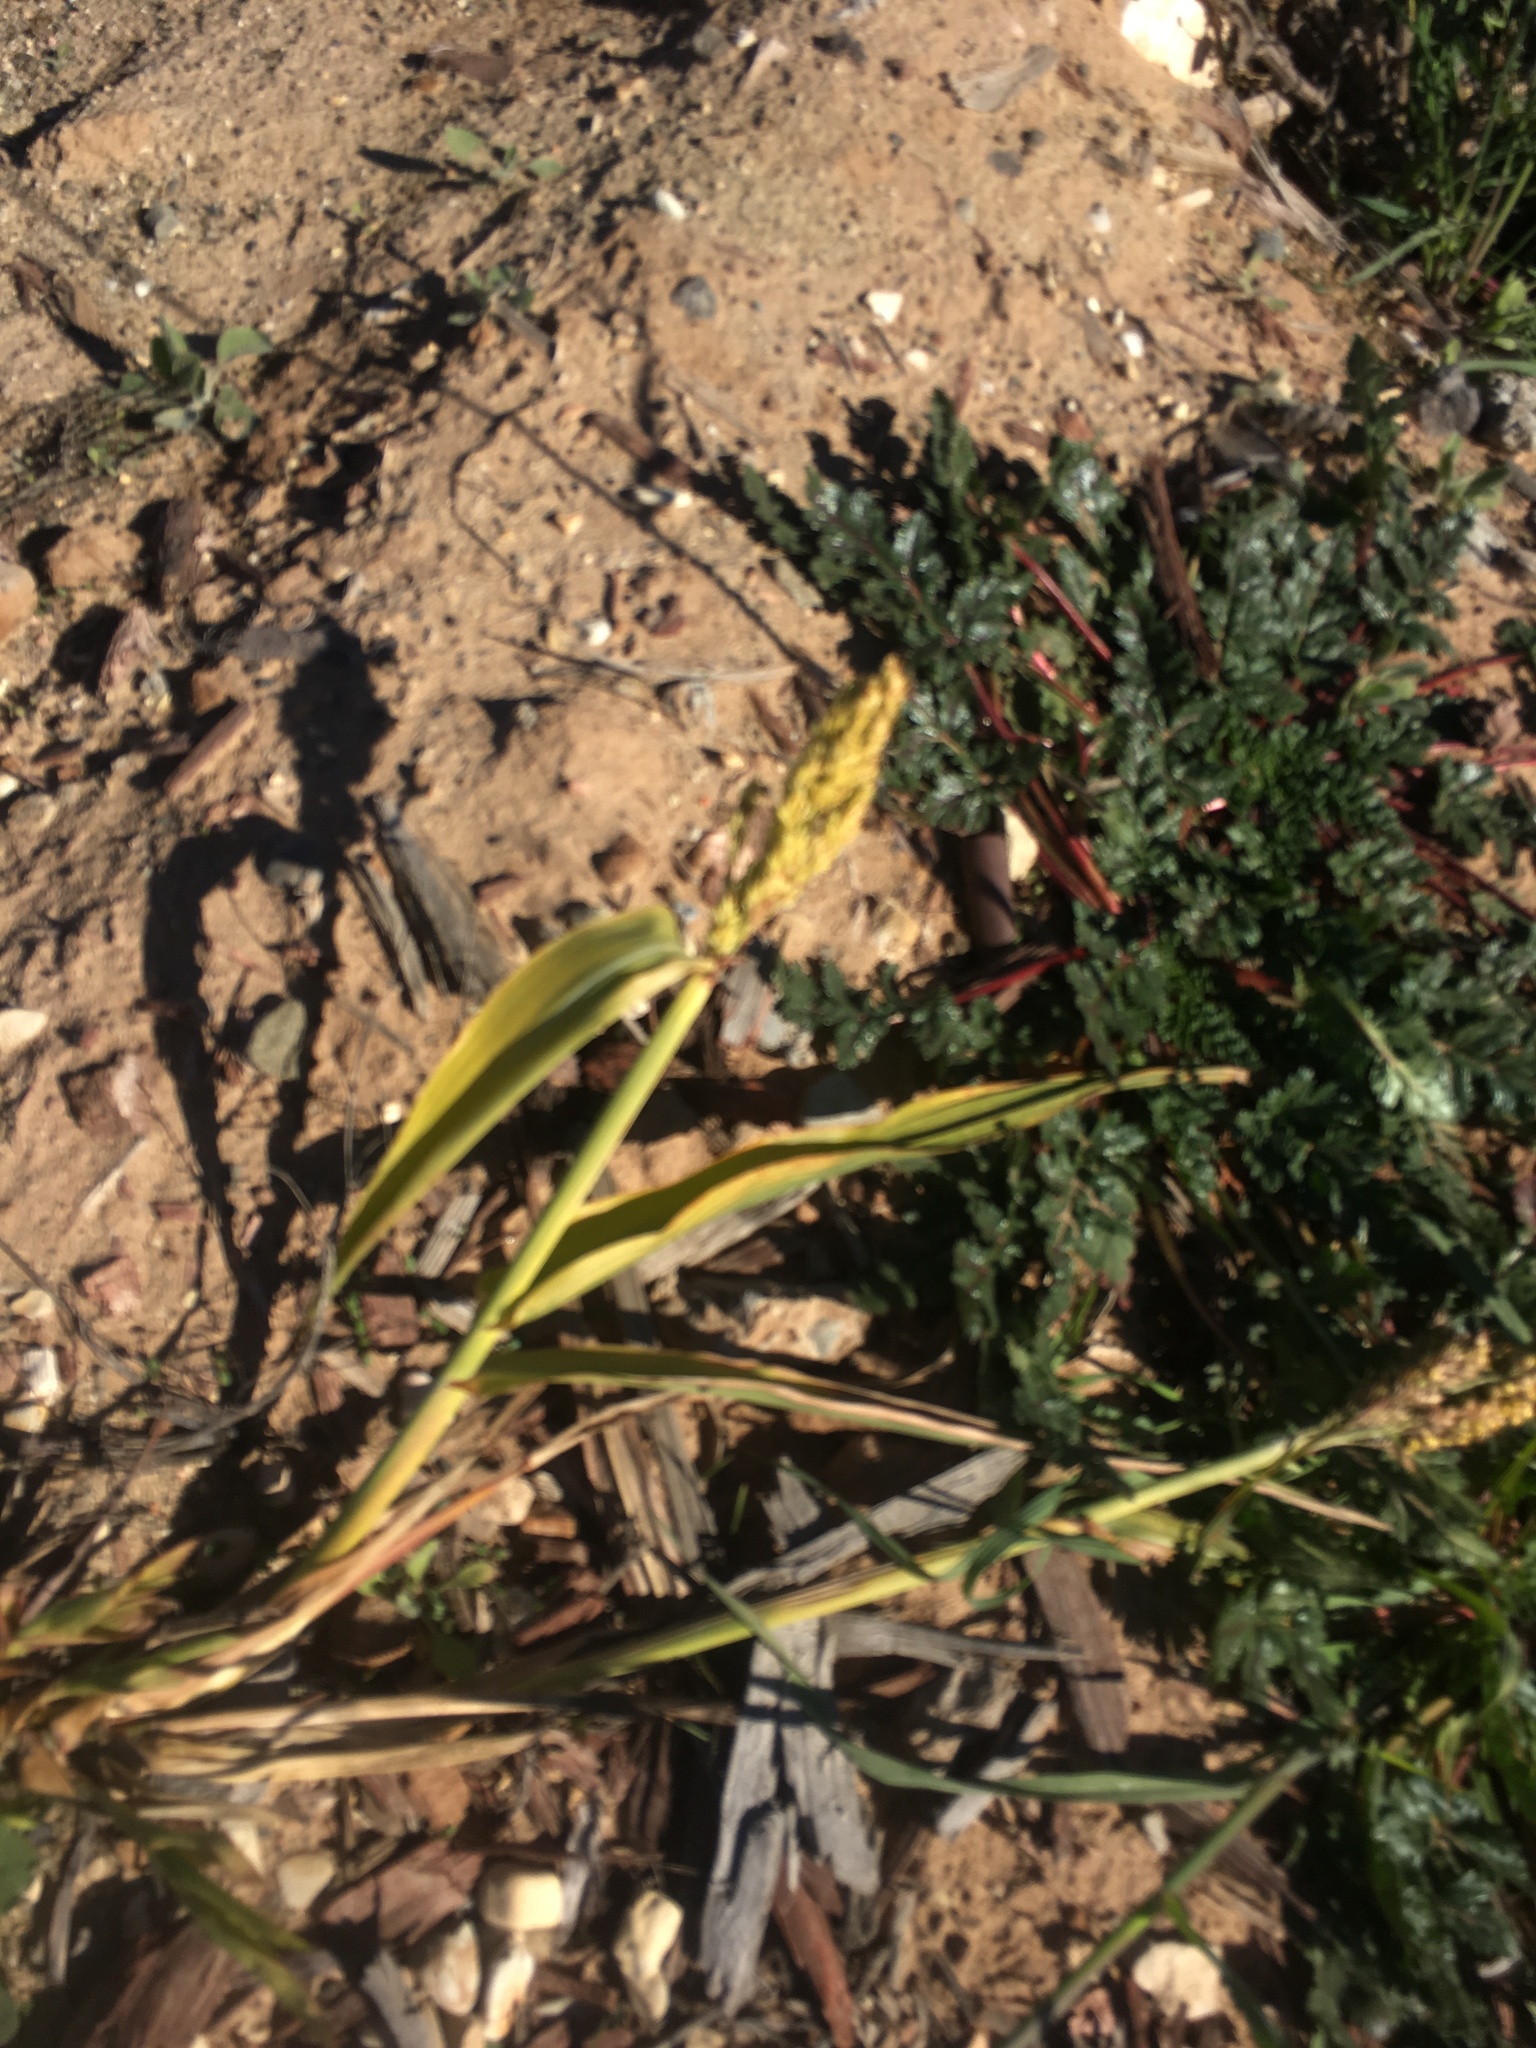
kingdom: Plantae
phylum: Tracheophyta
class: Liliopsida
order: Poales
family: Poaceae
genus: Sorghum
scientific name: Sorghum bicolor
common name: Sorghum
